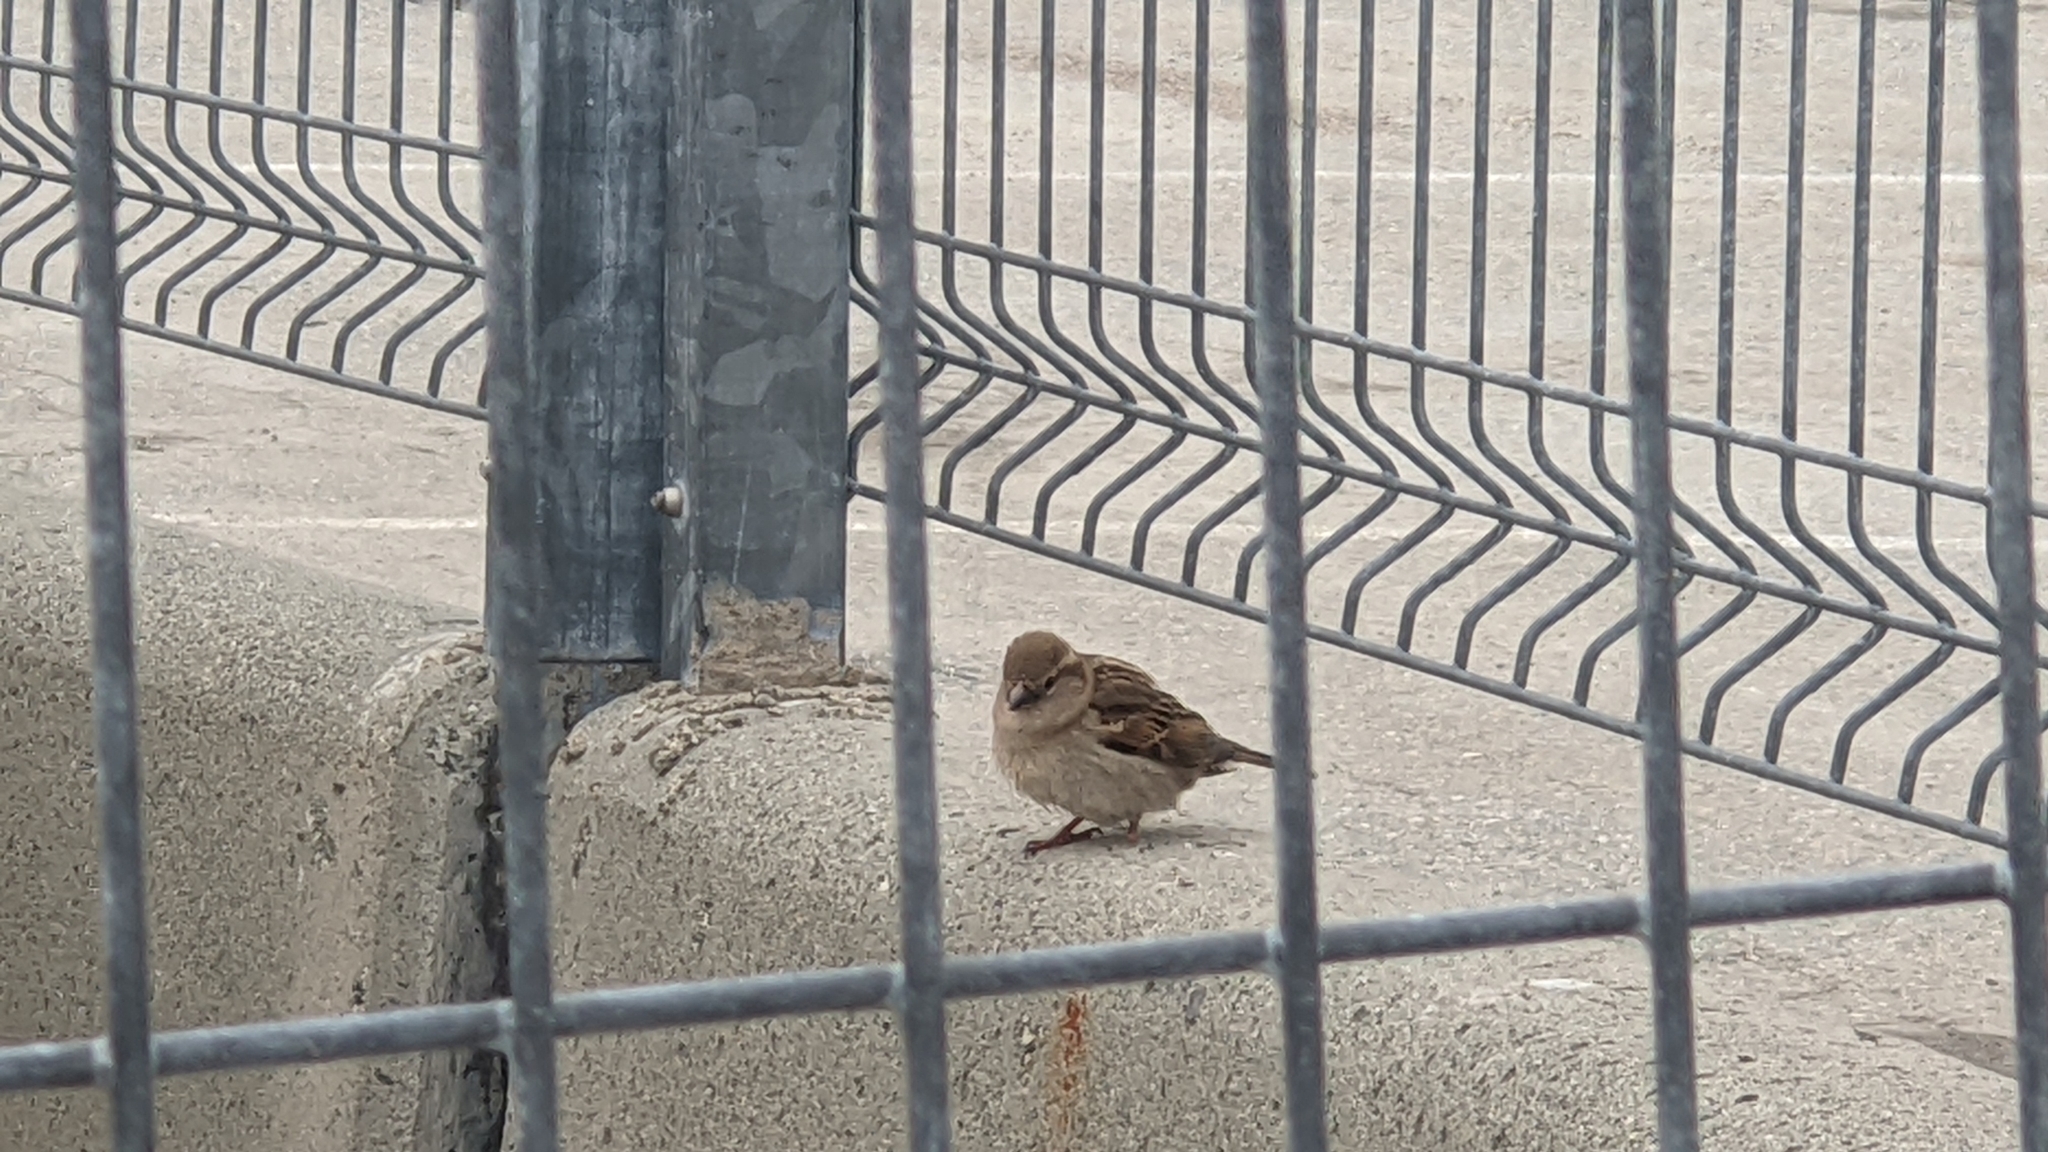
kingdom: Animalia
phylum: Chordata
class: Aves
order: Passeriformes
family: Passeridae
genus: Passer
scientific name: Passer domesticus
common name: House sparrow
